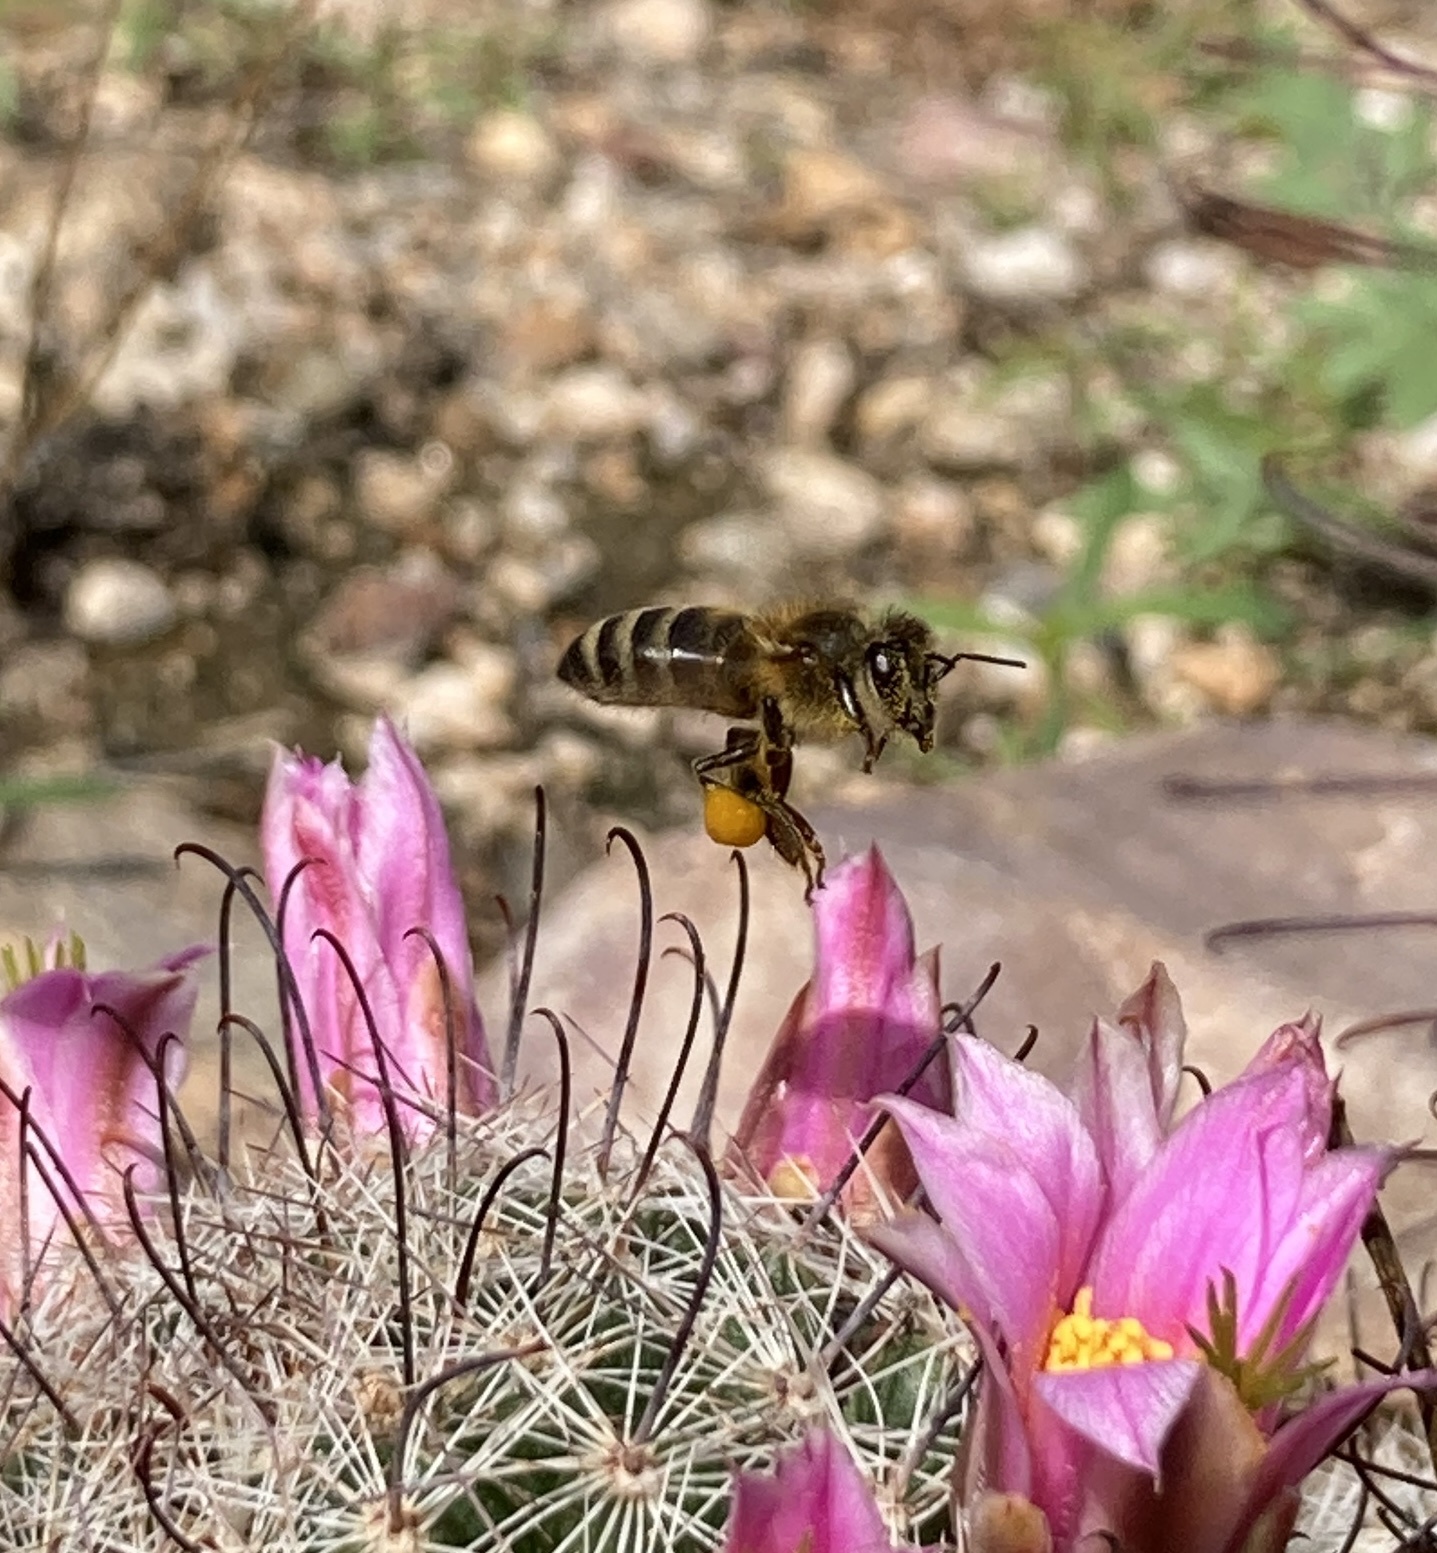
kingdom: Animalia
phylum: Arthropoda
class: Insecta
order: Hymenoptera
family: Apidae
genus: Apis
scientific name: Apis mellifera
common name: Honey bee
